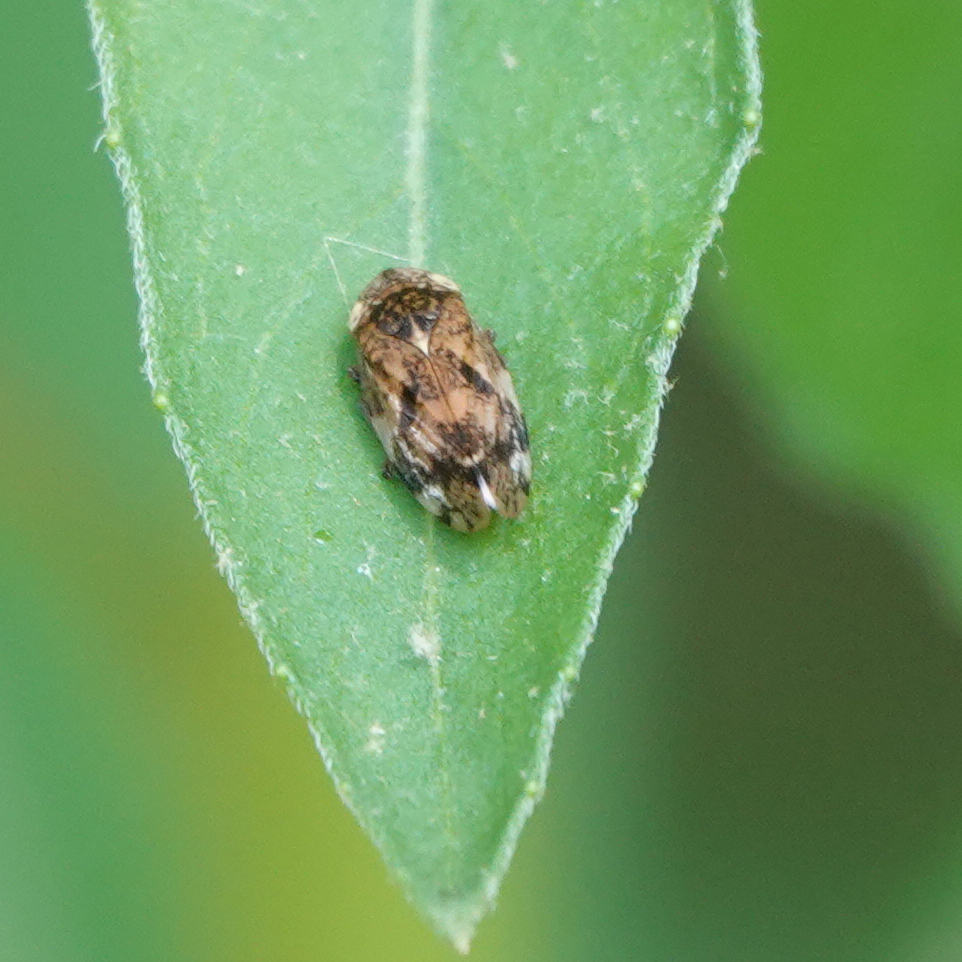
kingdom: Animalia
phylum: Arthropoda
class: Insecta
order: Hemiptera
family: Aphrophoridae
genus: Philaenus
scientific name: Philaenus spumarius
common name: Meadow spittlebug
